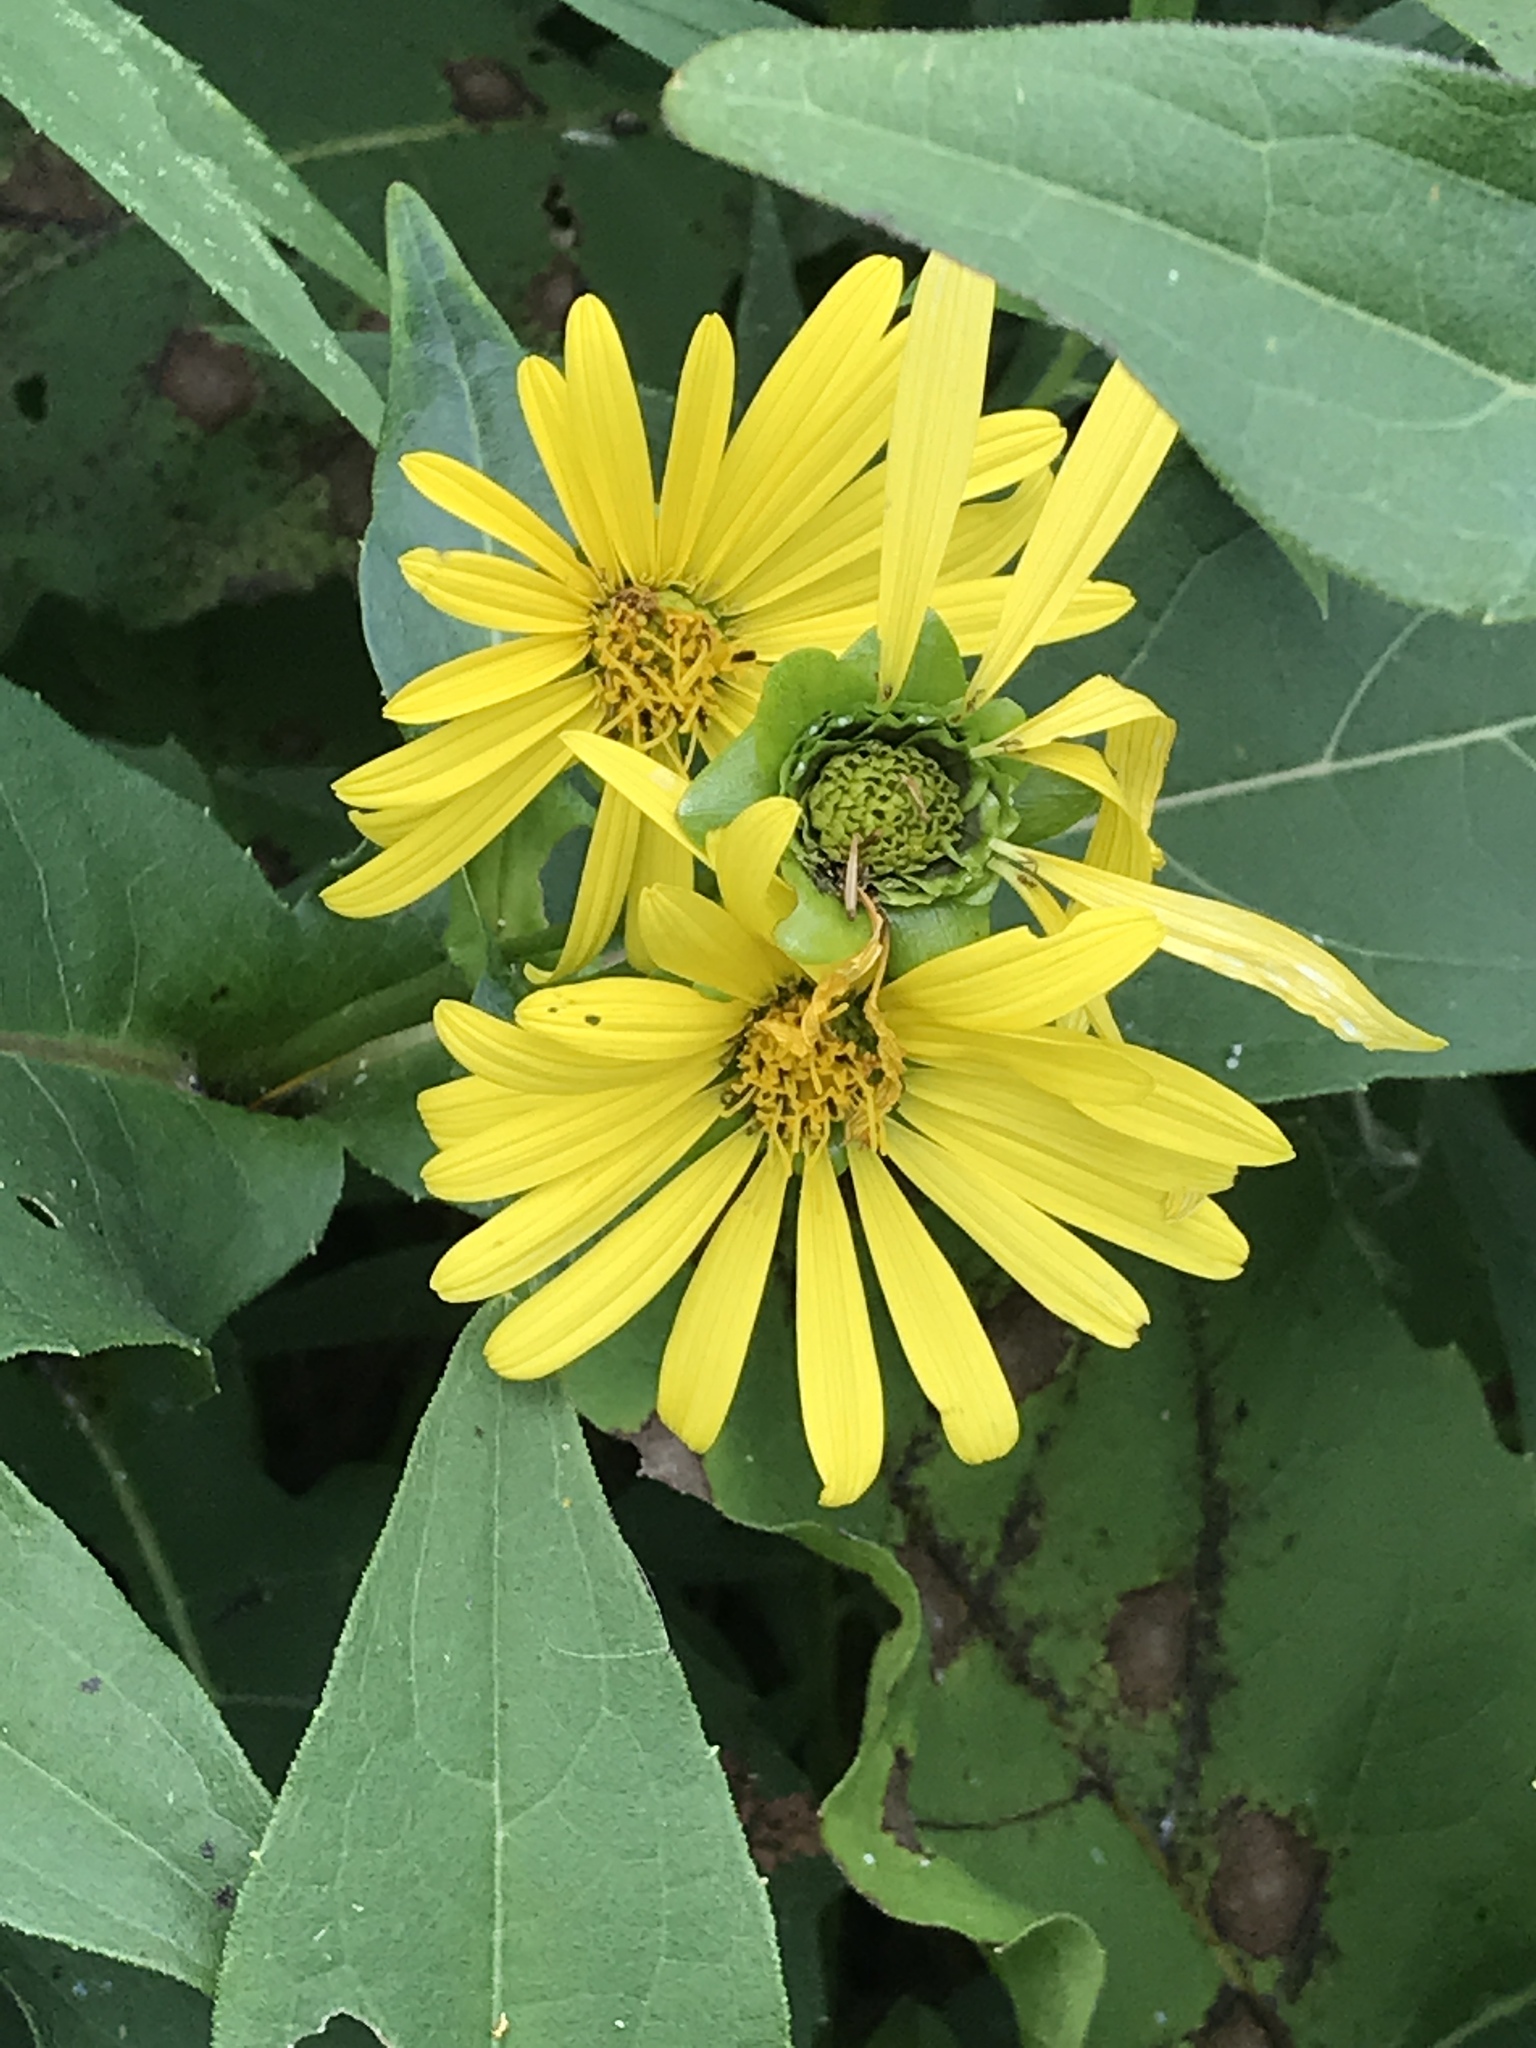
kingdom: Plantae
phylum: Tracheophyta
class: Magnoliopsida
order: Asterales
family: Asteraceae
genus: Silphium
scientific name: Silphium perfoliatum
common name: Cup-plant
